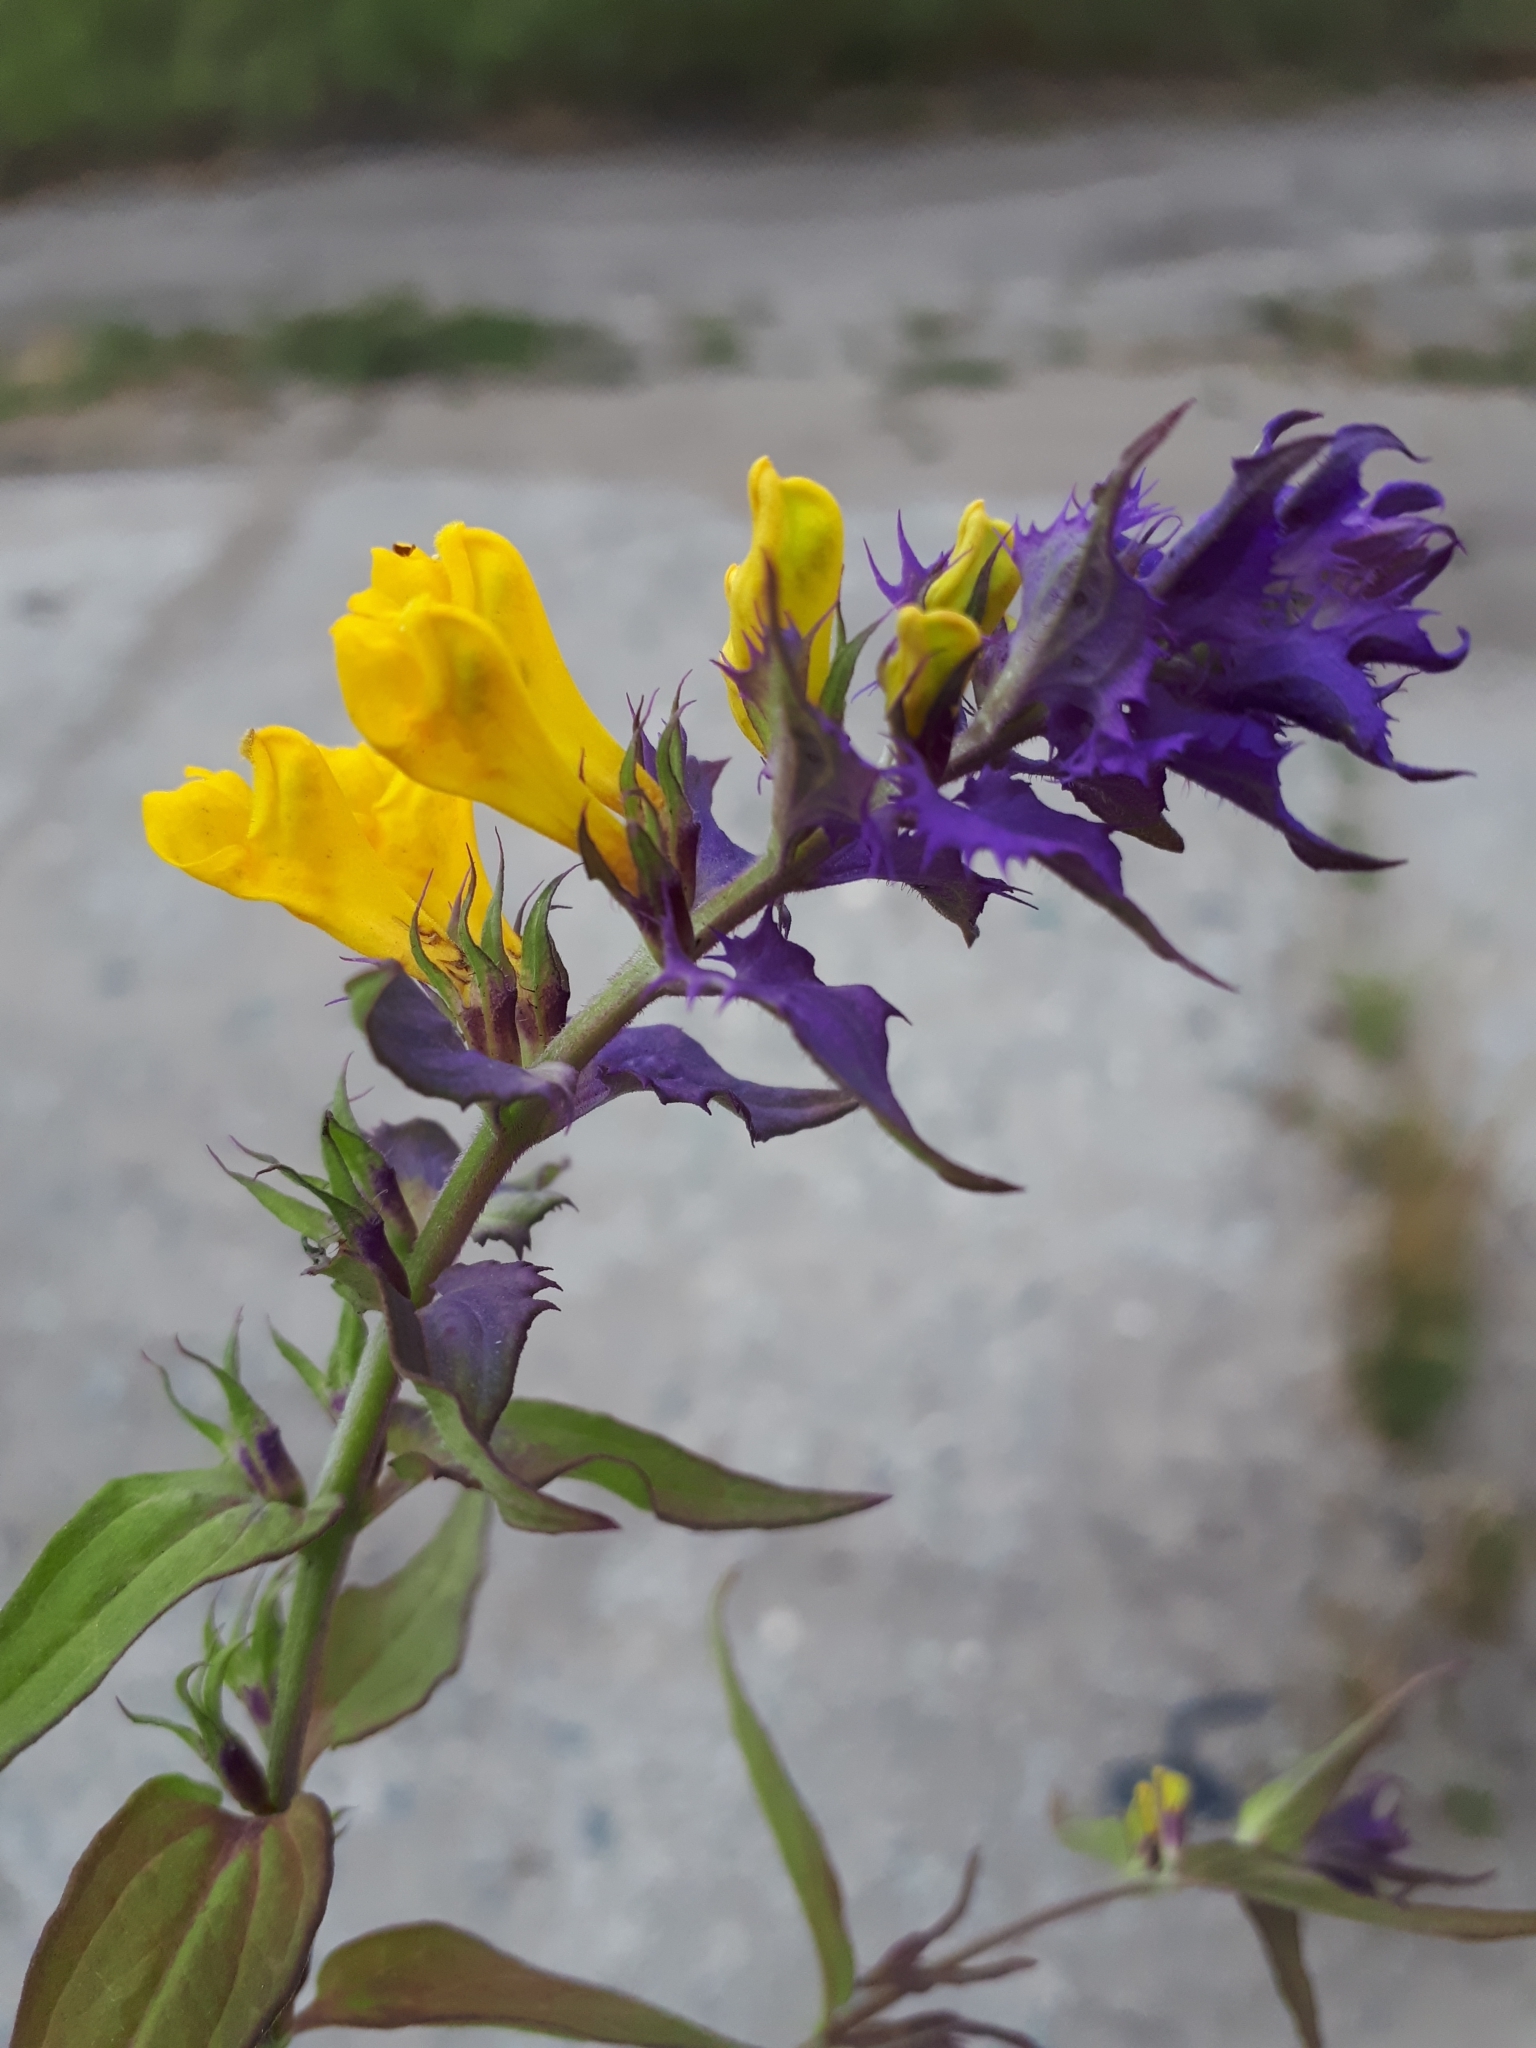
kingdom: Plantae
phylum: Tracheophyta
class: Magnoliopsida
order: Lamiales
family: Orobanchaceae
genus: Melampyrum
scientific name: Melampyrum nemorosum
